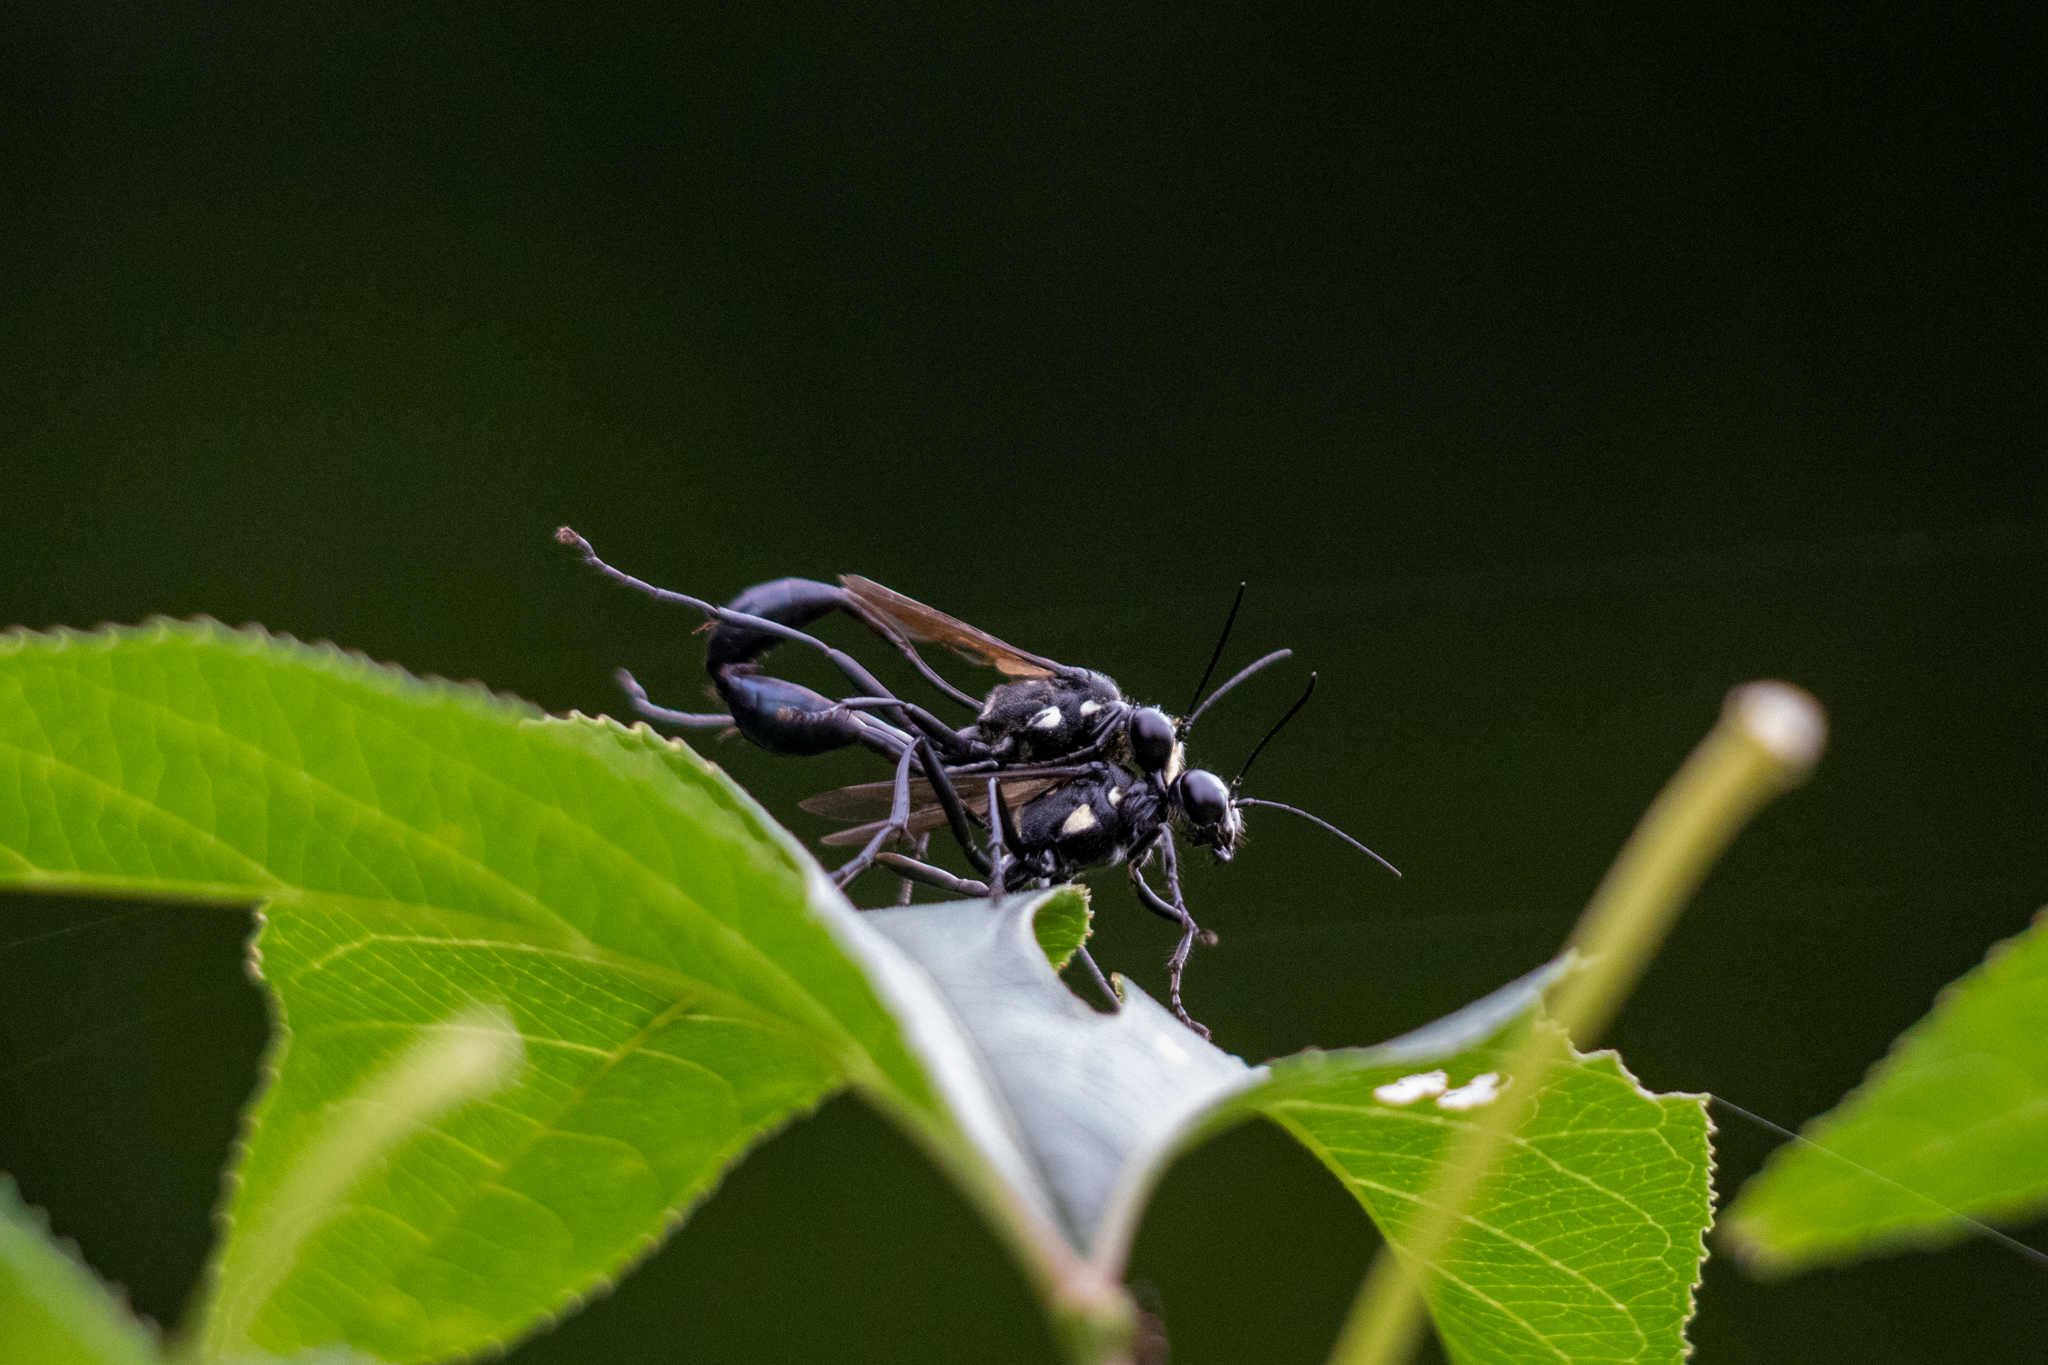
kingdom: Animalia
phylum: Arthropoda
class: Insecta
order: Hymenoptera
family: Sphecidae
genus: Eremnophila
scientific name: Eremnophila aureonotata
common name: Gold-marked thread-waisted wasp
